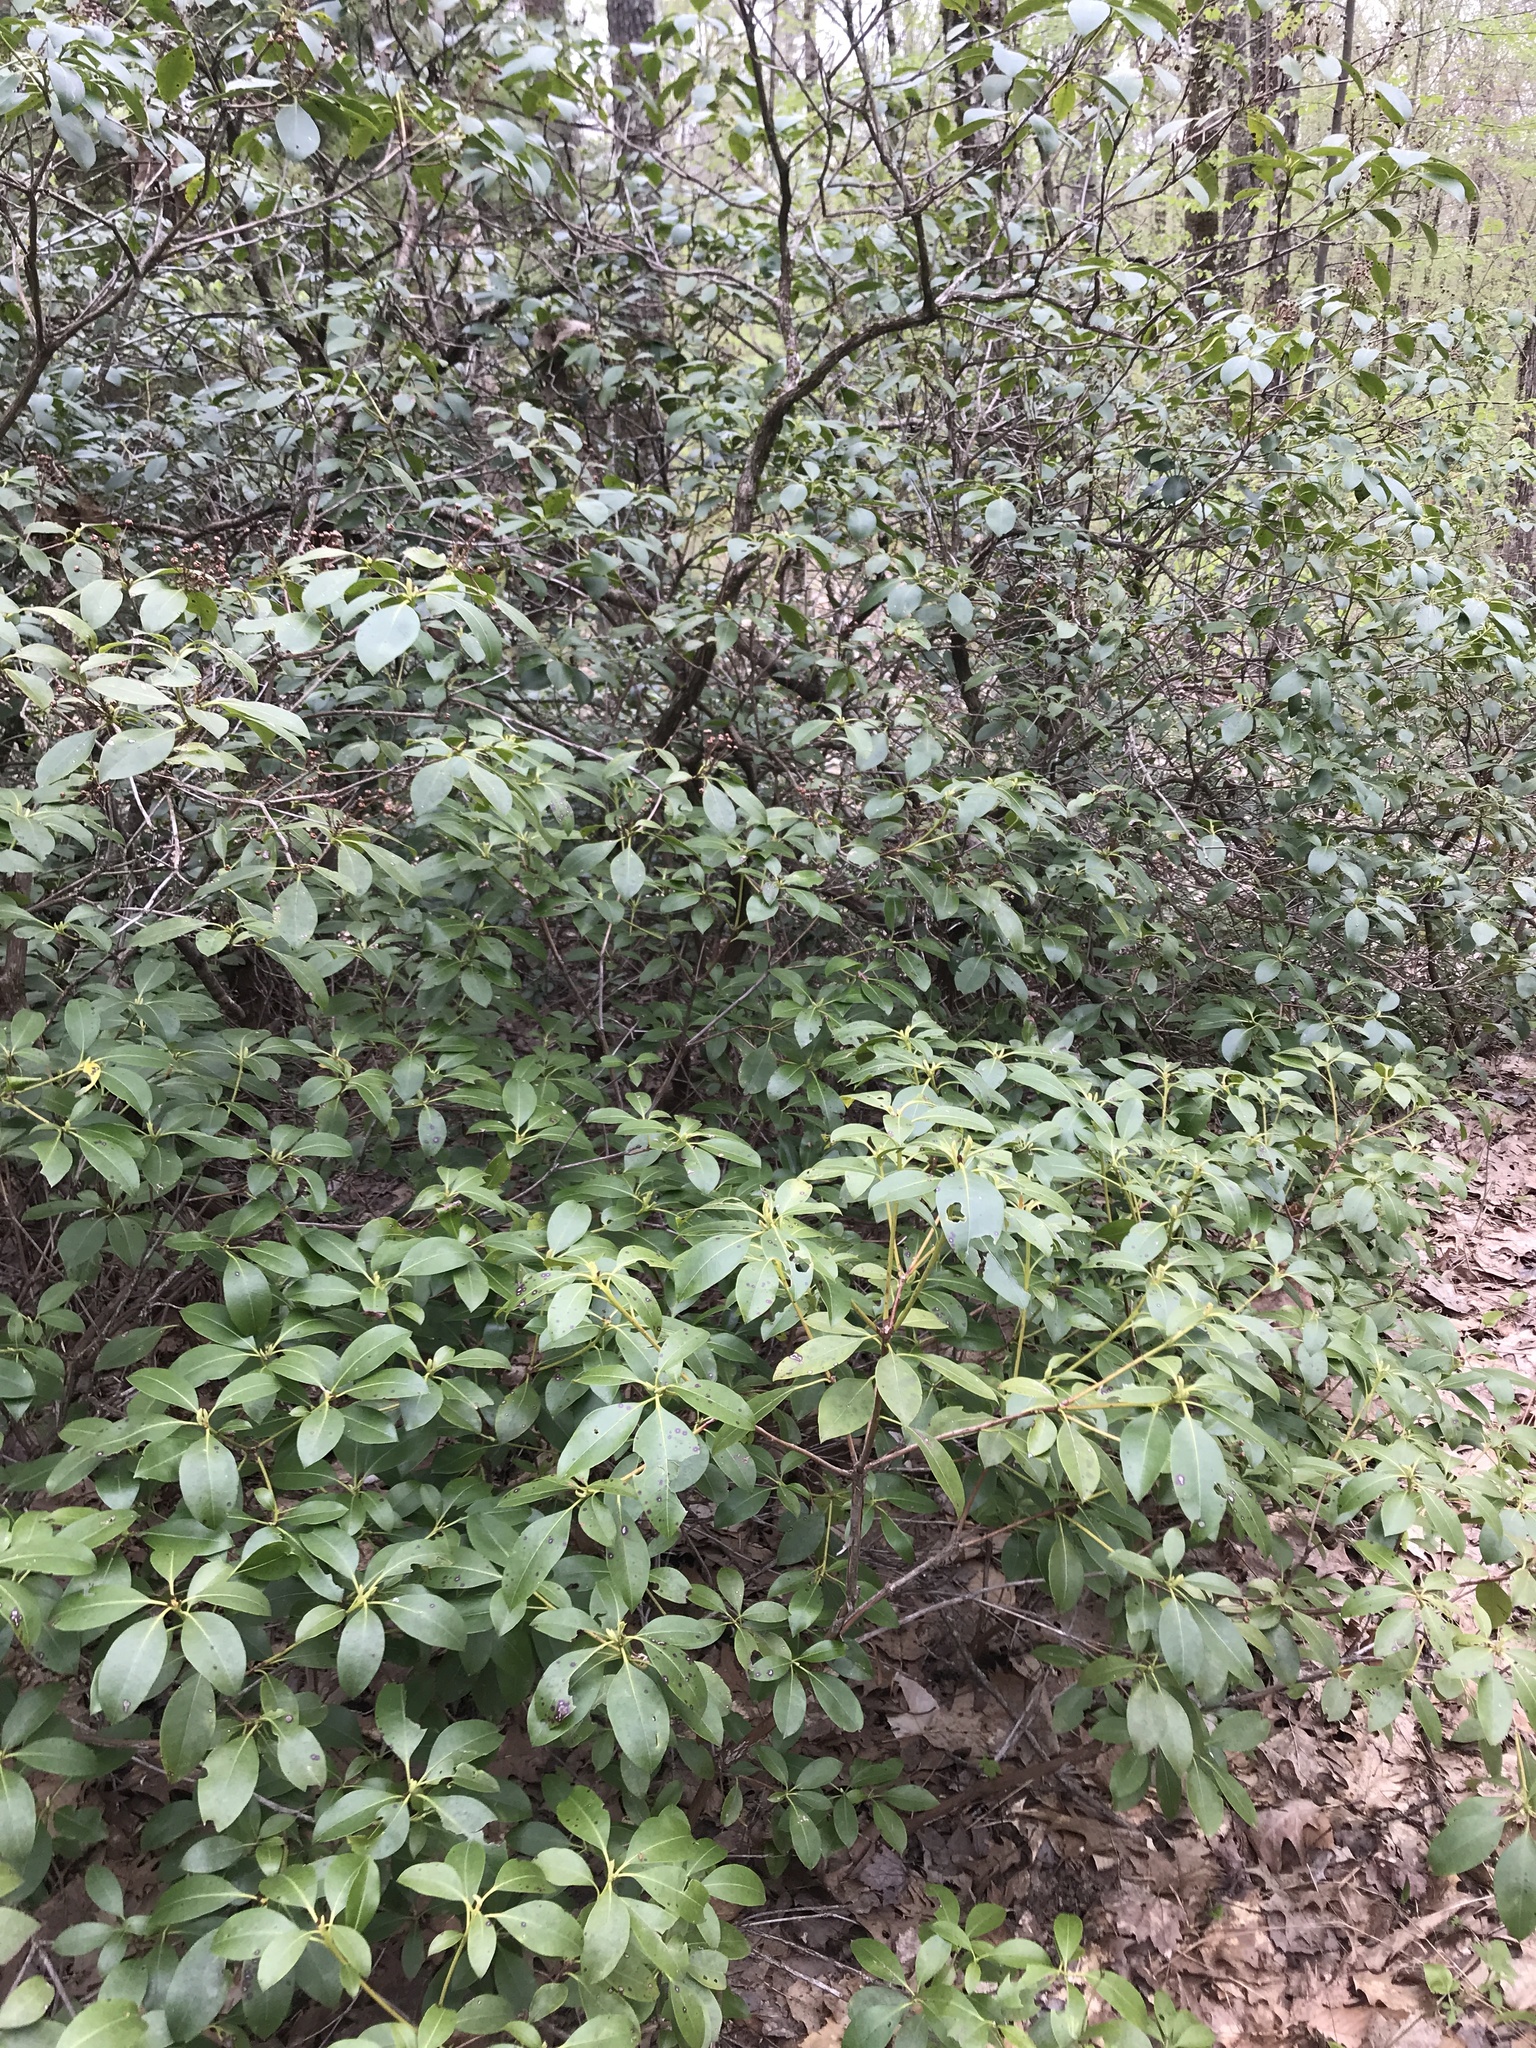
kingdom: Plantae
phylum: Tracheophyta
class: Magnoliopsida
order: Ericales
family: Ericaceae
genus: Kalmia
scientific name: Kalmia latifolia
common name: Mountain-laurel
